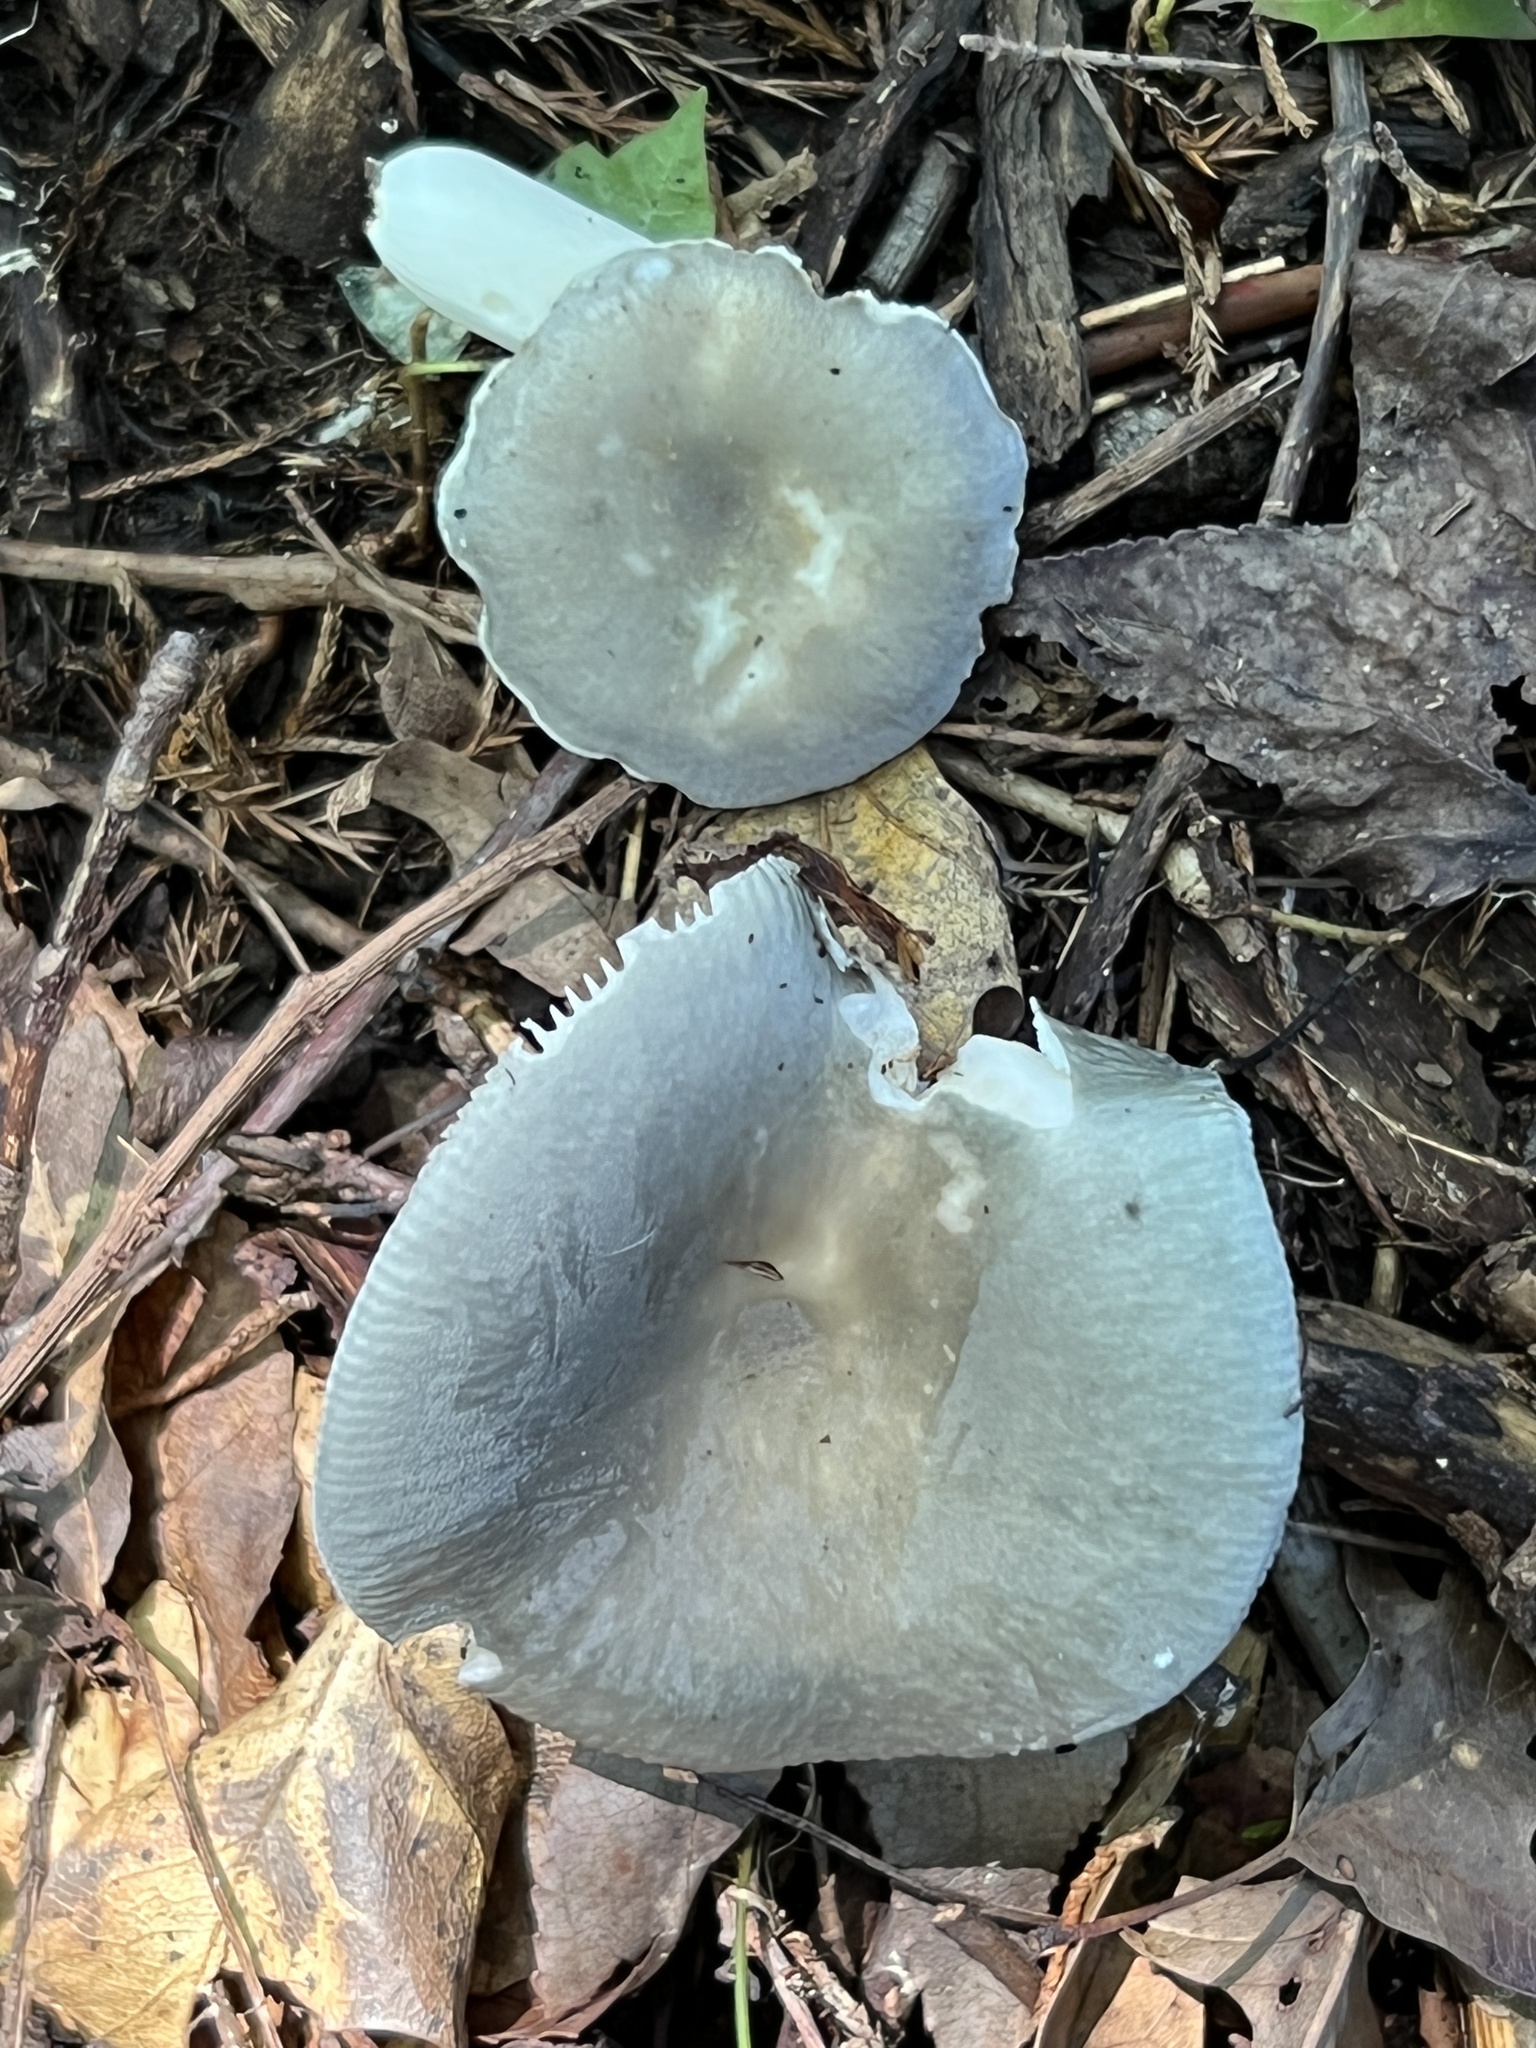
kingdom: Fungi
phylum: Basidiomycota
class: Agaricomycetes
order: Russulales
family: Russulaceae
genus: Russula
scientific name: Russula modesta
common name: Modest russula
